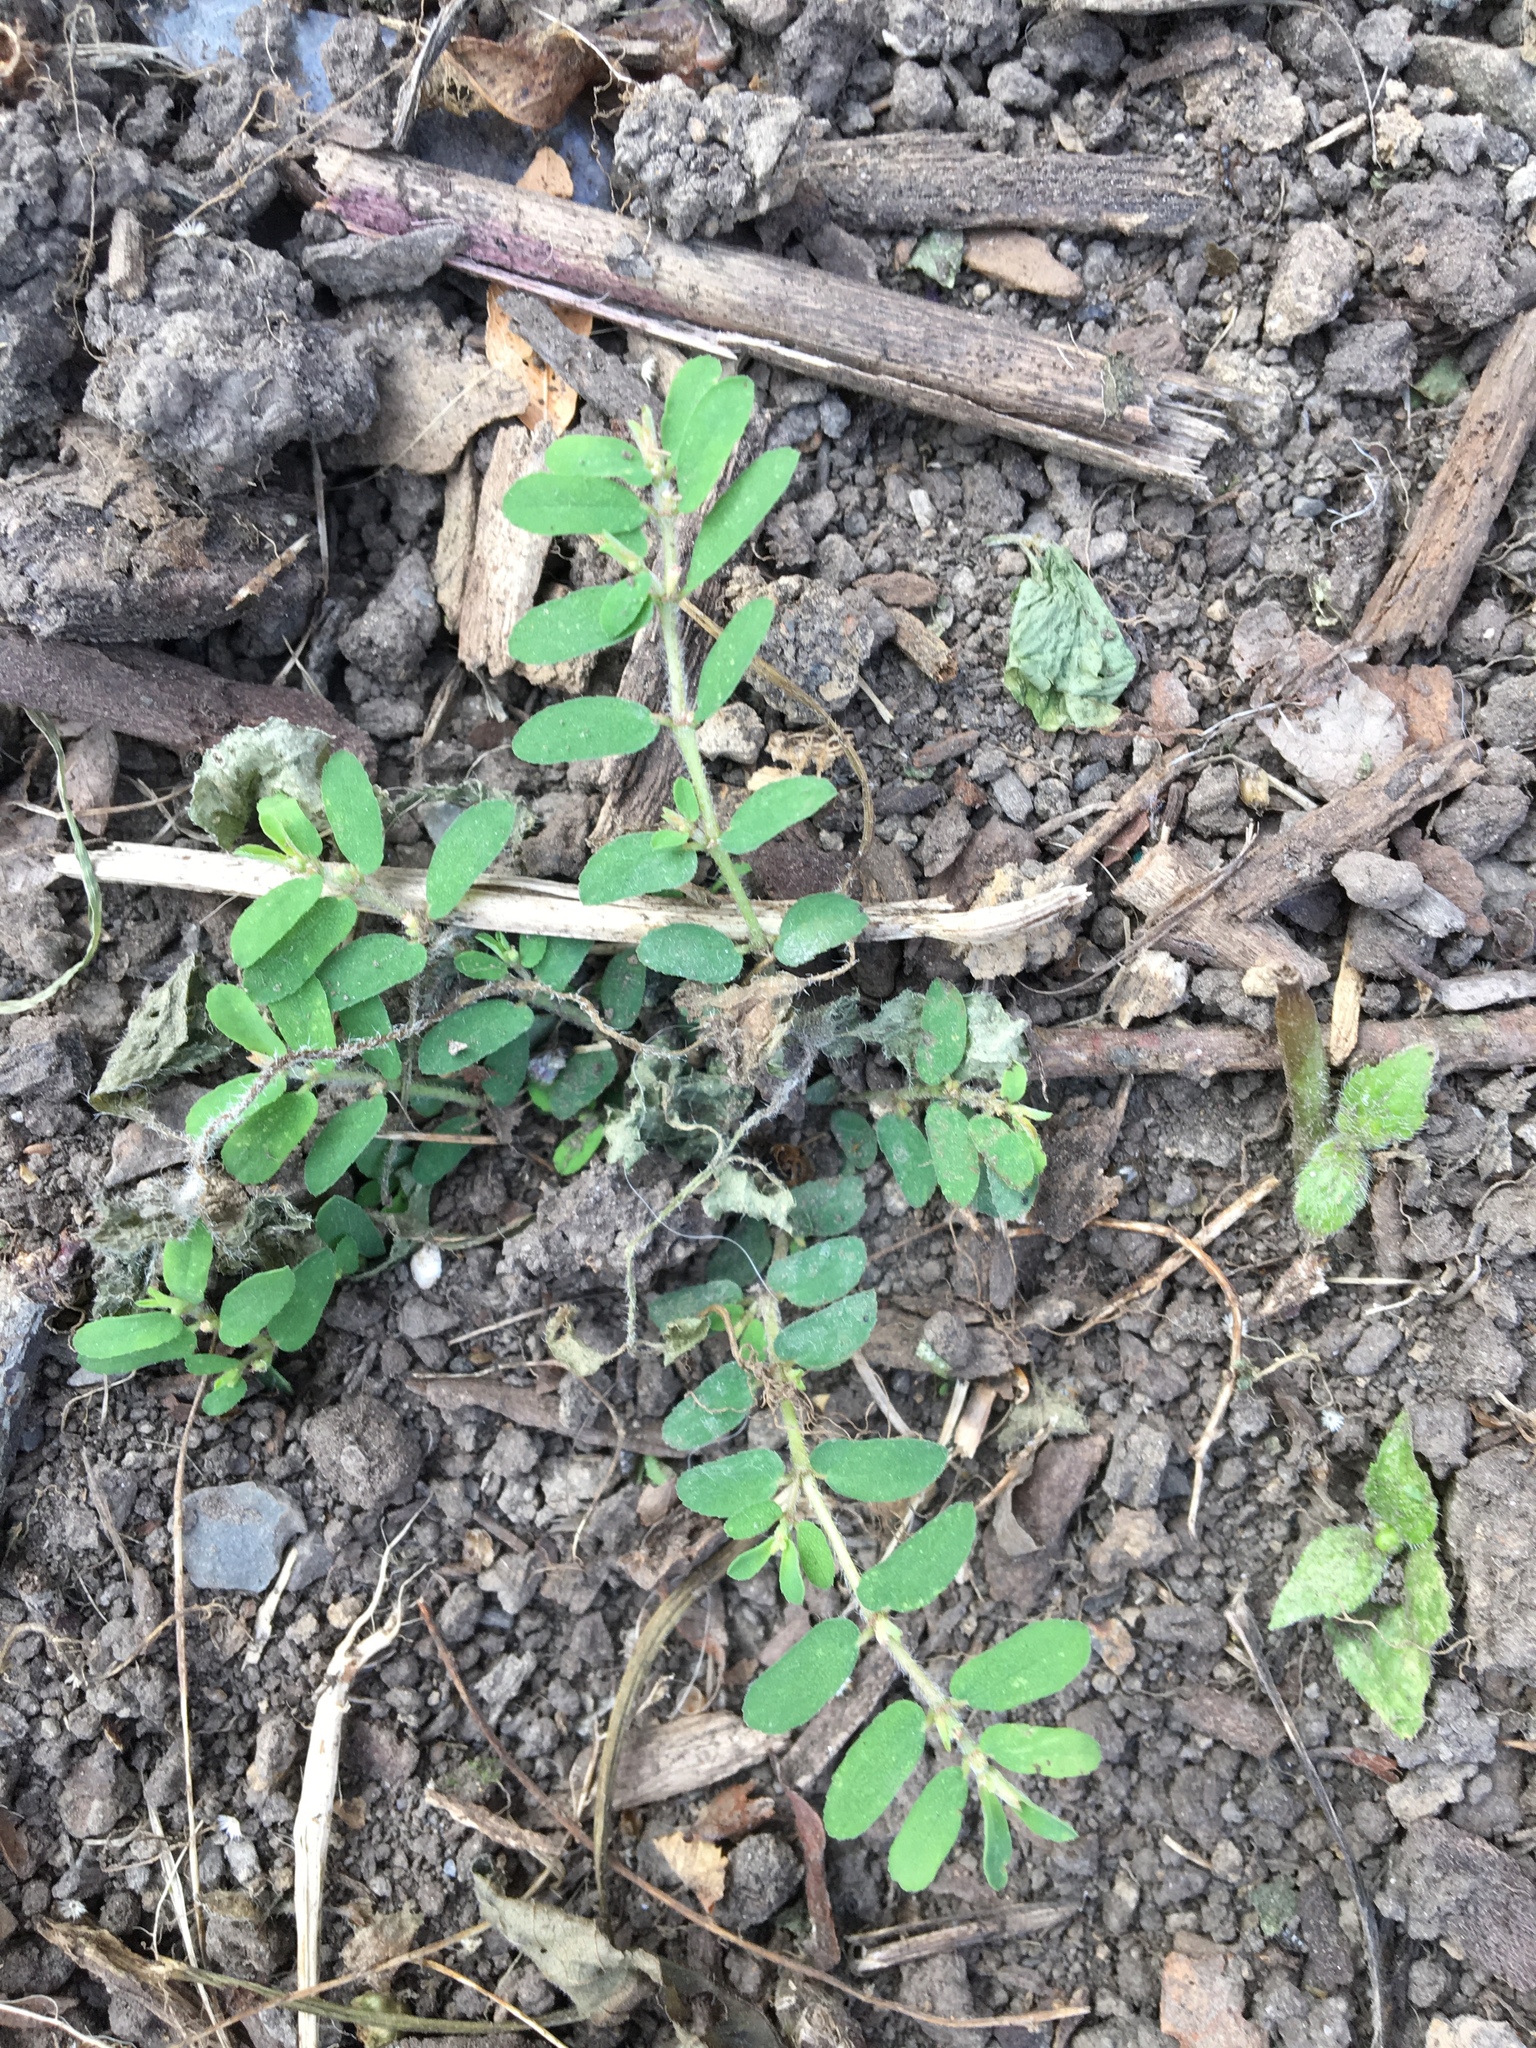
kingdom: Plantae
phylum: Tracheophyta
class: Magnoliopsida
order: Malpighiales
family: Euphorbiaceae
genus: Euphorbia
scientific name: Euphorbia maculata
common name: Spotted spurge
